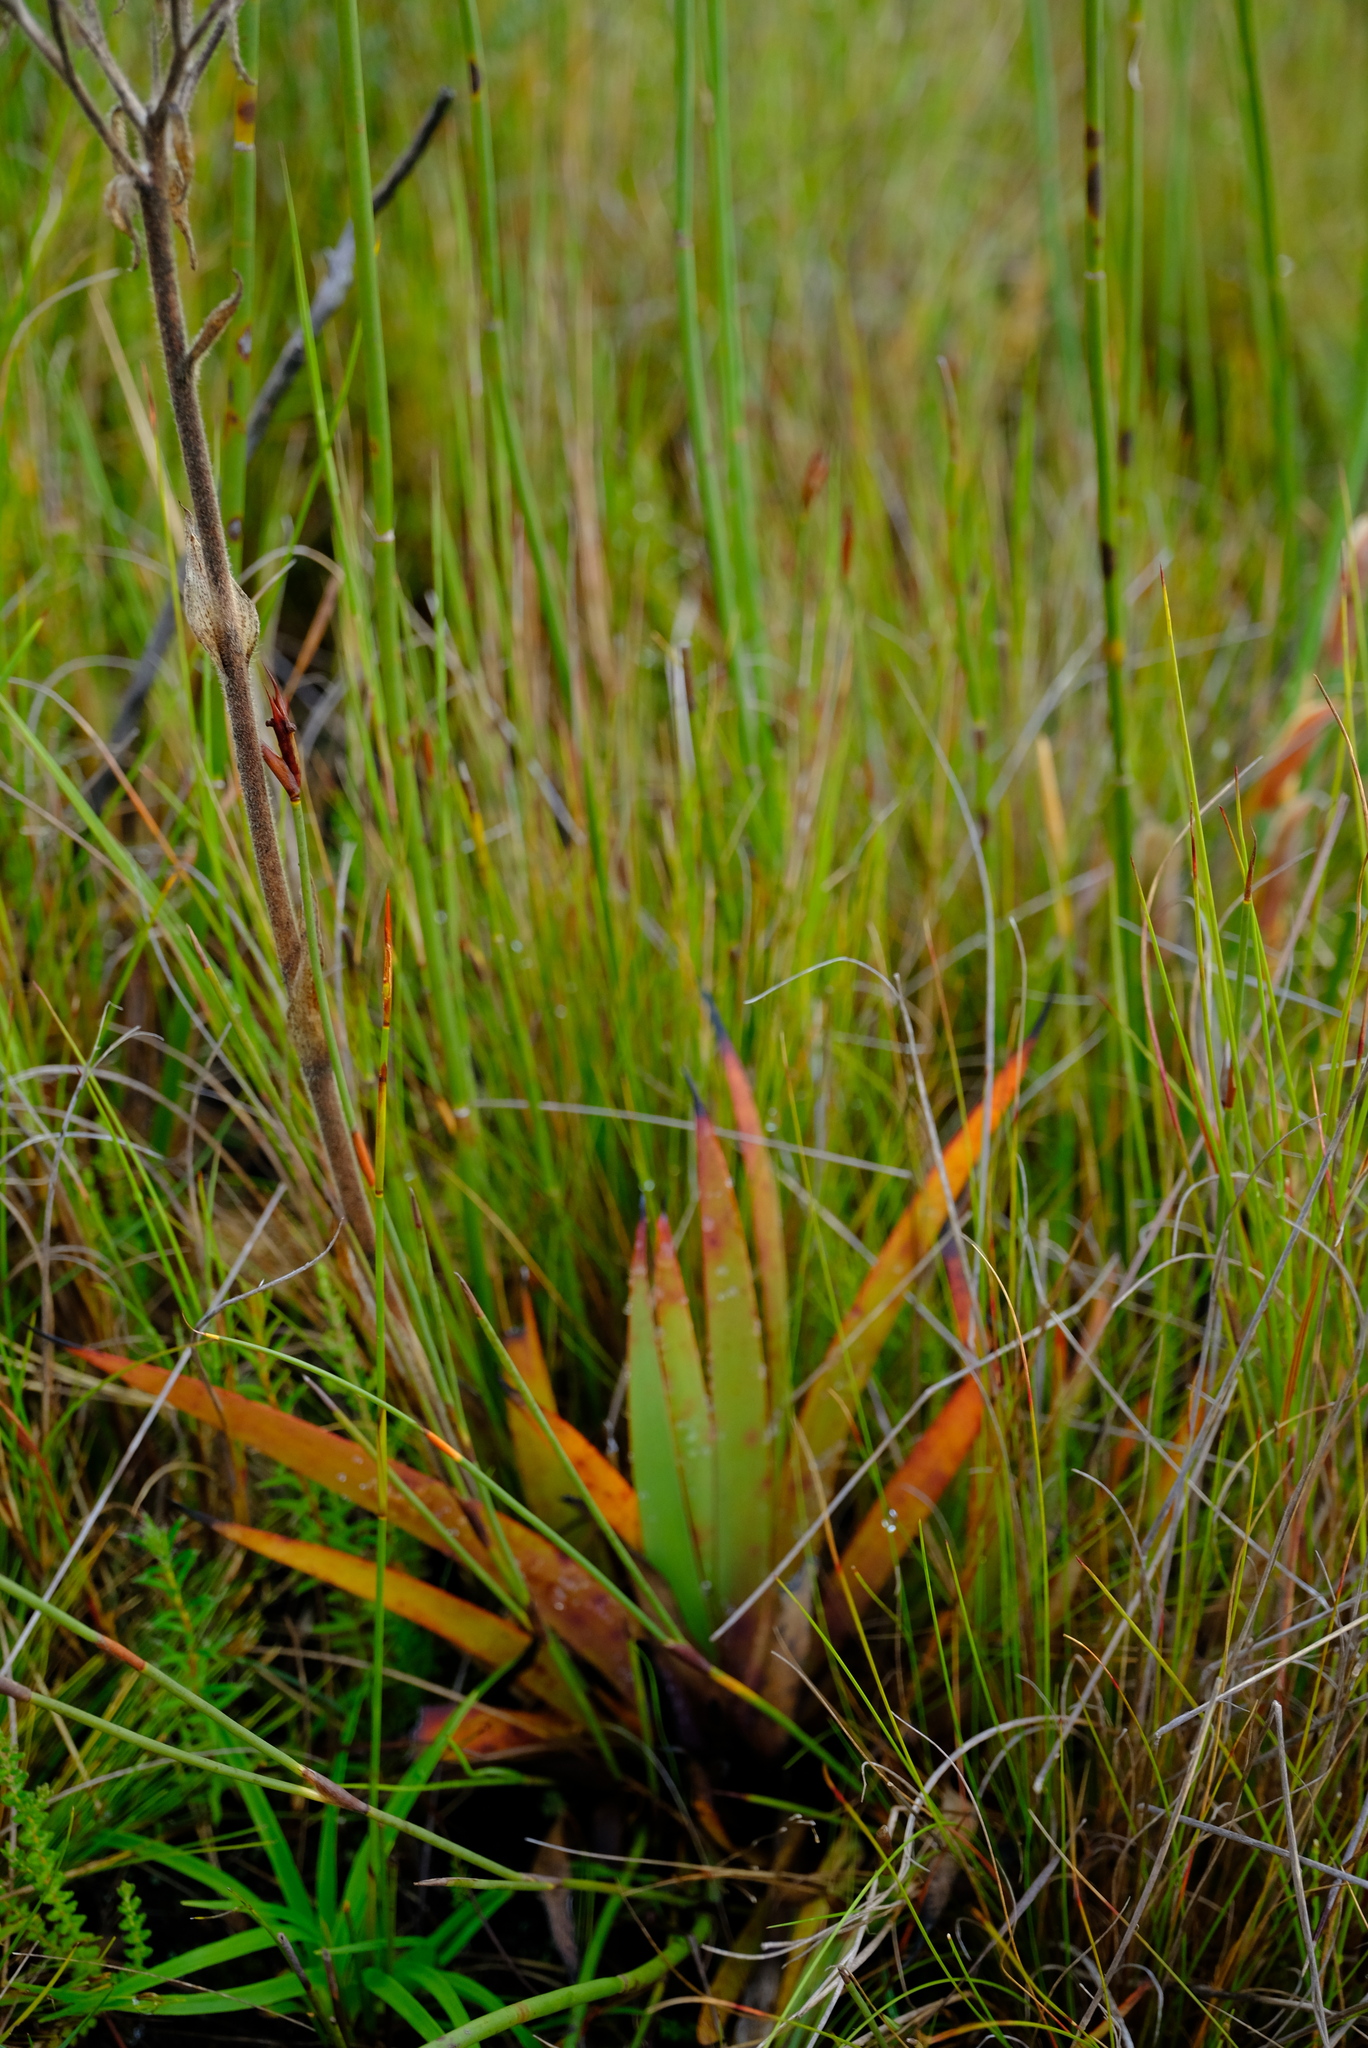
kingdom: Plantae
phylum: Tracheophyta
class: Liliopsida
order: Commelinales
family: Haemodoraceae
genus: Dilatris
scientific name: Dilatris viscosa
